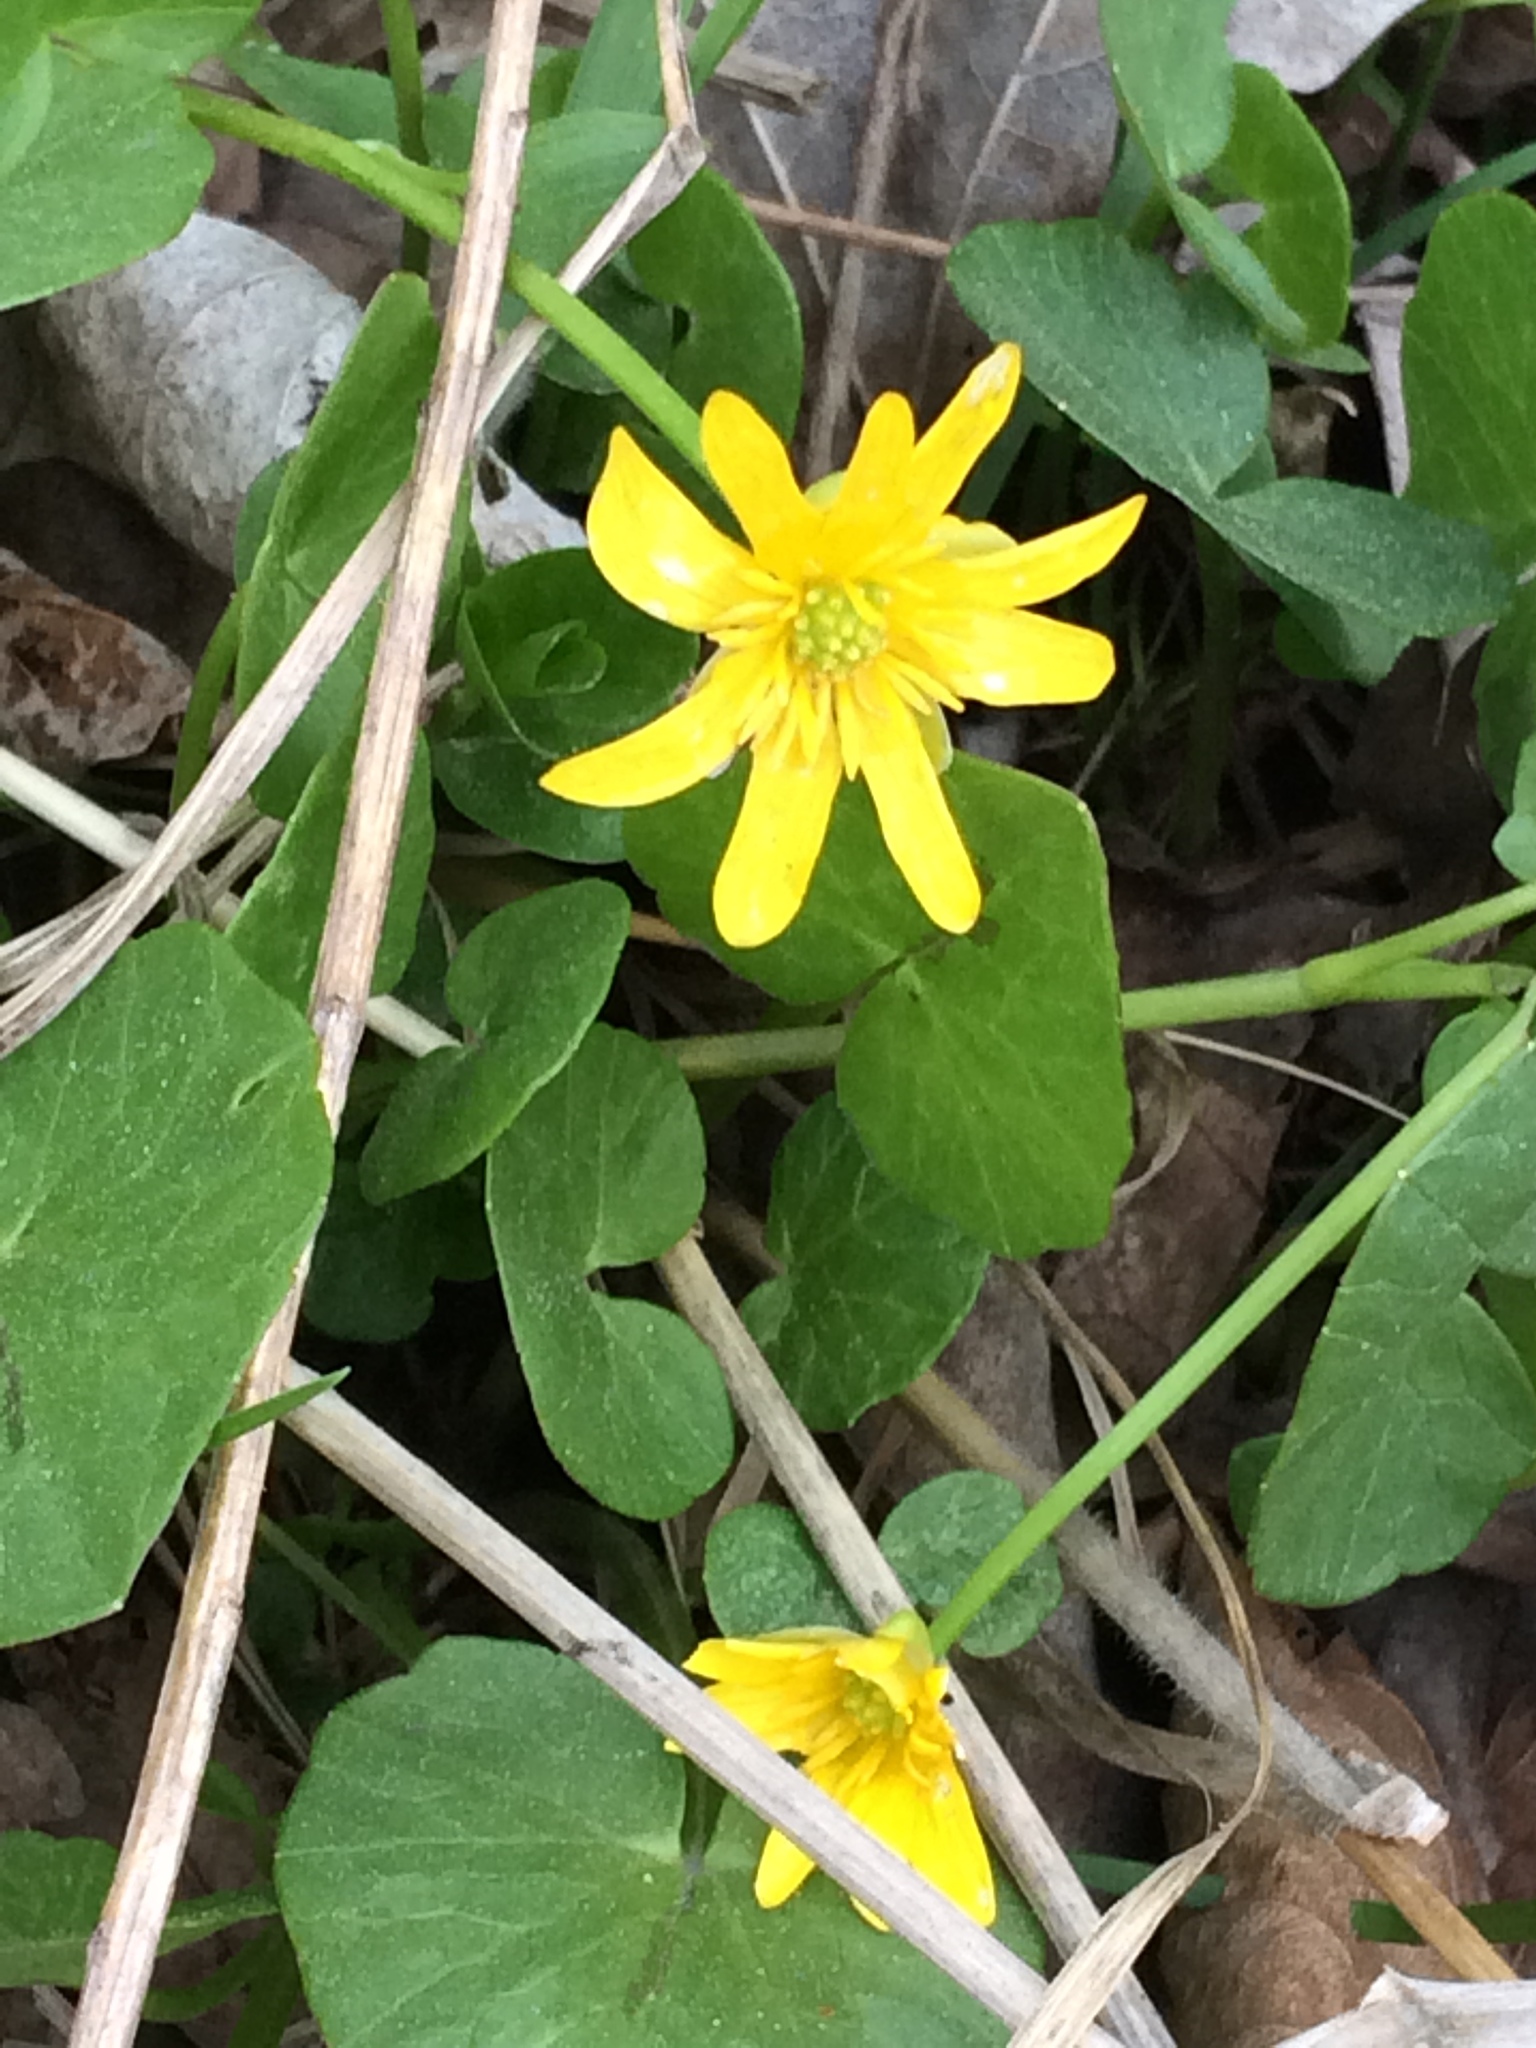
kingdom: Plantae
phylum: Tracheophyta
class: Magnoliopsida
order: Ranunculales
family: Ranunculaceae
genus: Ficaria
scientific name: Ficaria verna
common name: Lesser celandine
